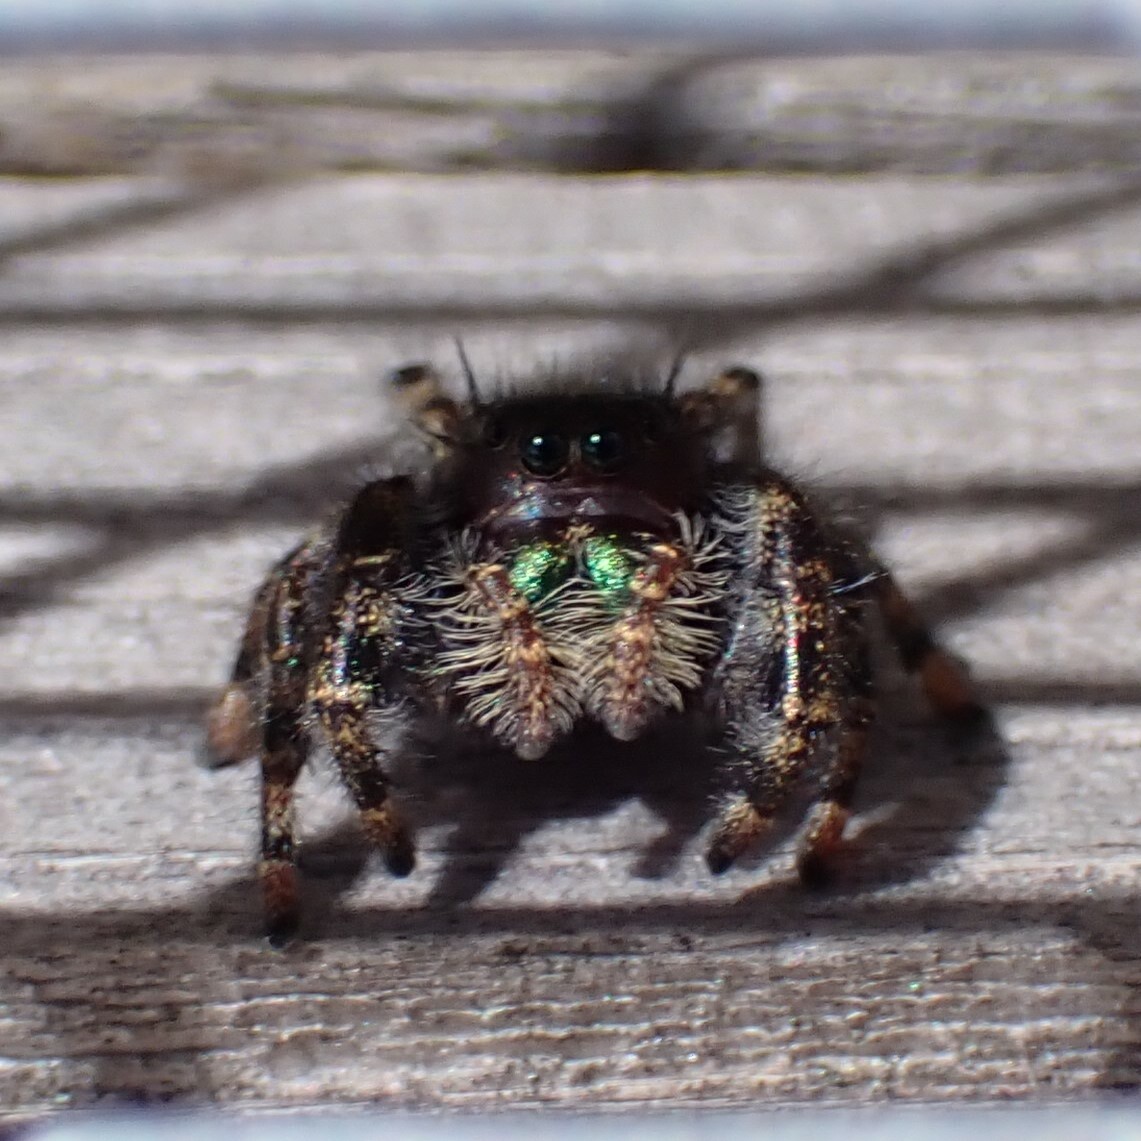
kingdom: Animalia
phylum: Arthropoda
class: Arachnida
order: Araneae
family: Salticidae
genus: Phidippus
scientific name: Phidippus audax
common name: Bold jumper
